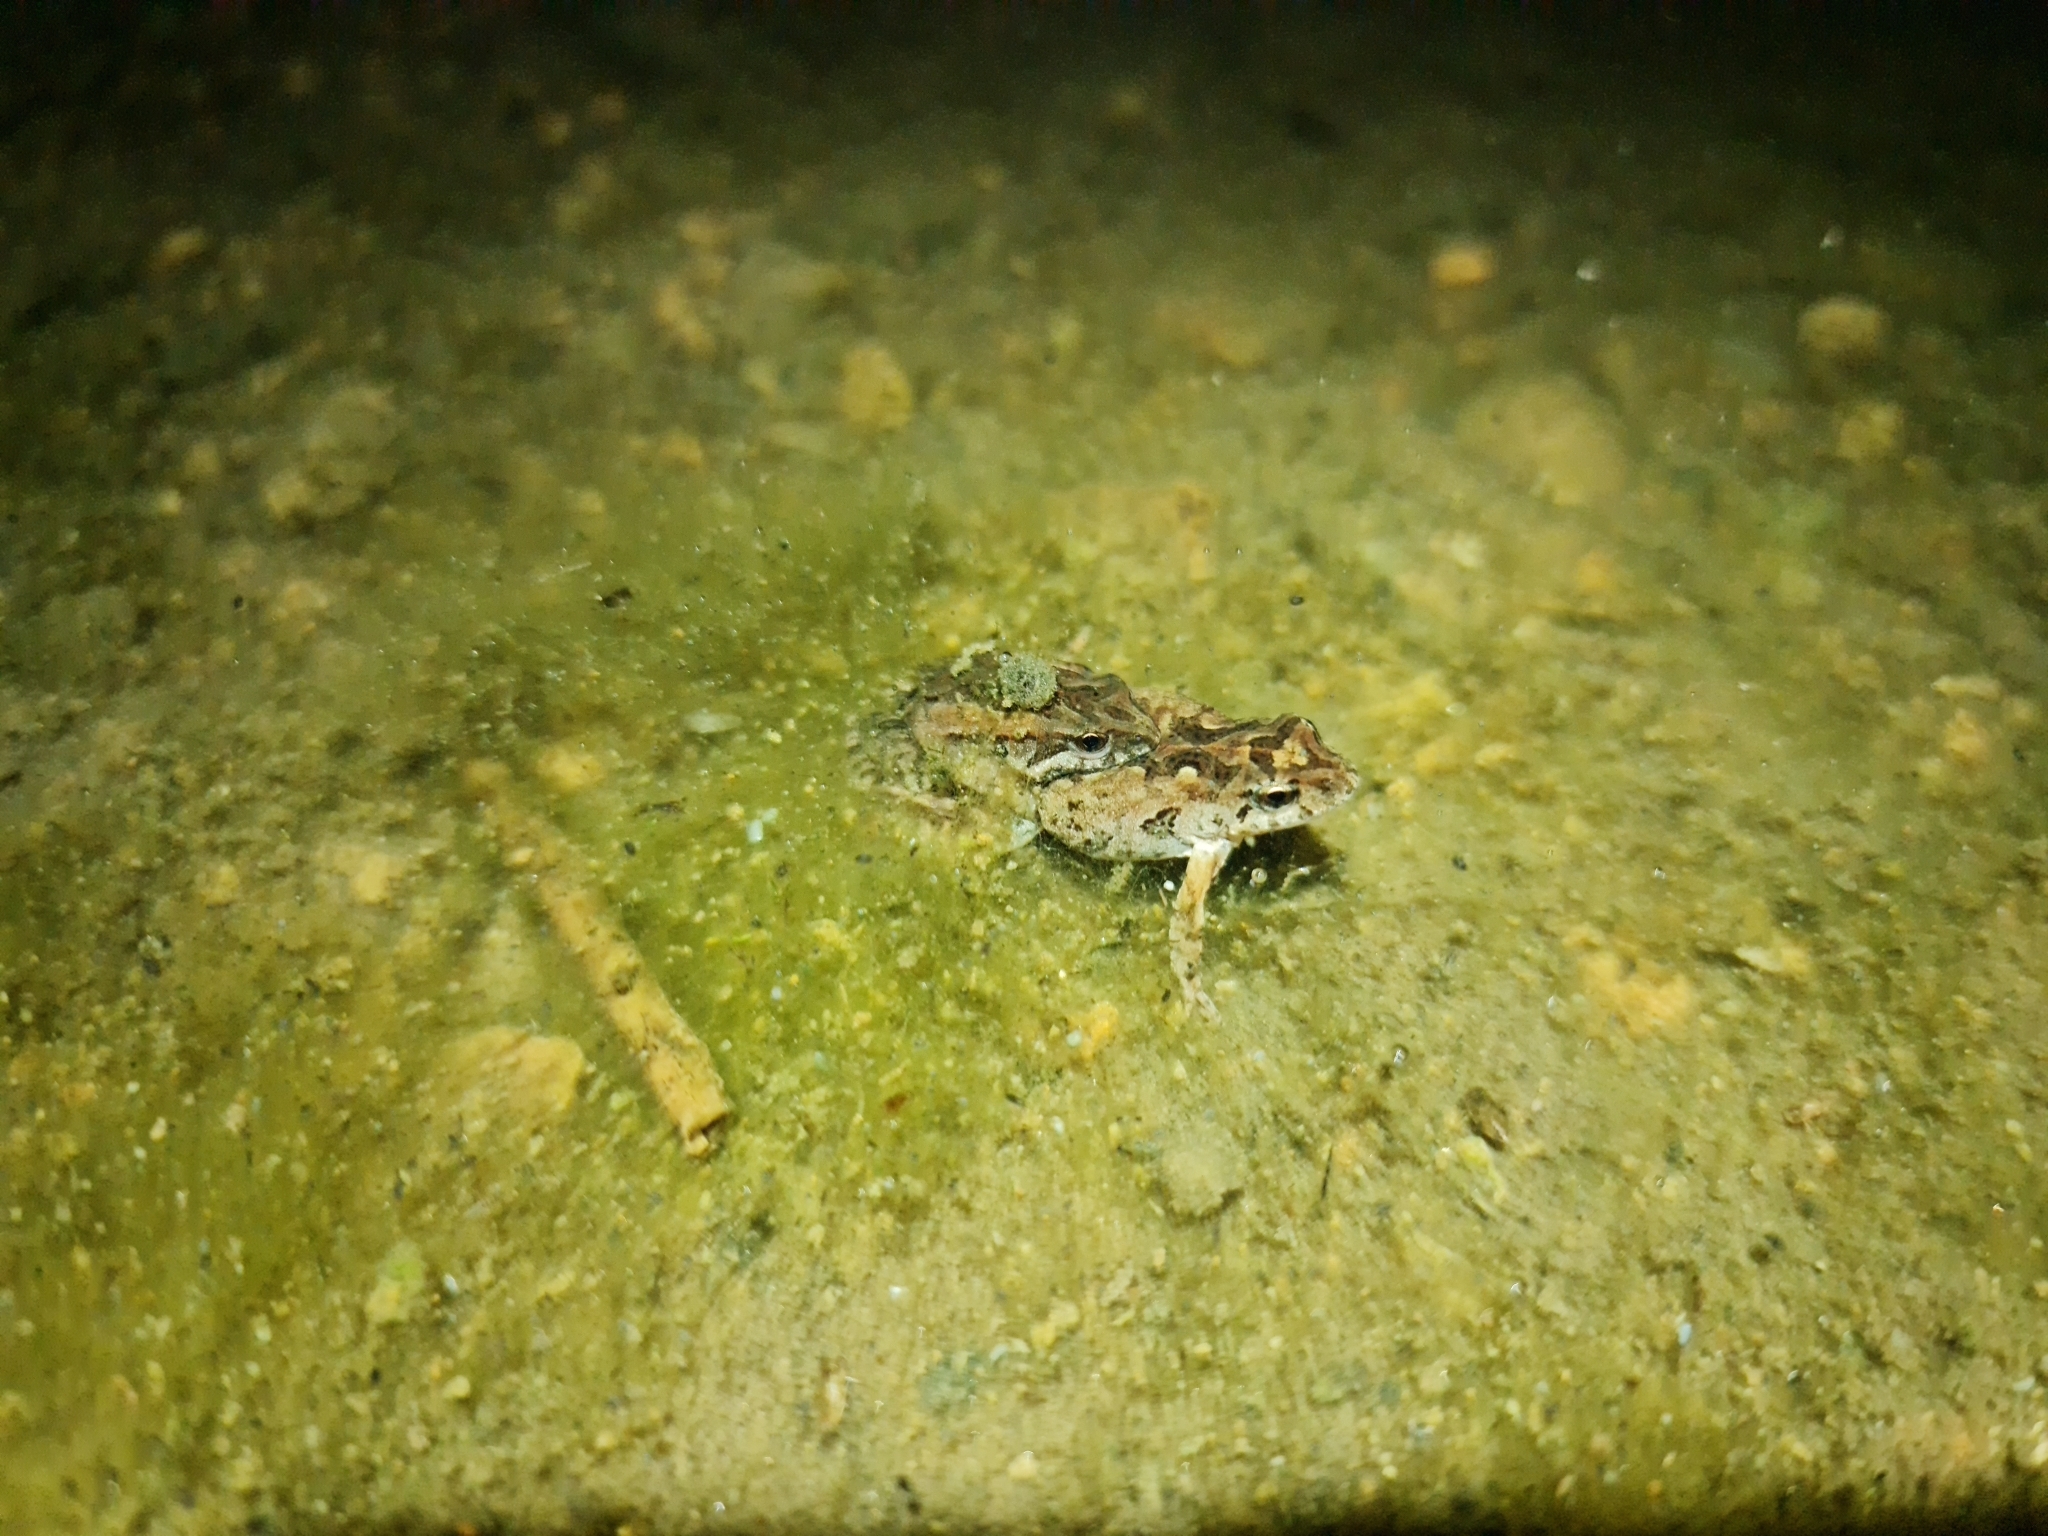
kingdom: Animalia
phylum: Chordata
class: Amphibia
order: Anura
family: Myobatrachidae
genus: Crinia
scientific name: Crinia signifera
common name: Brown froglet
